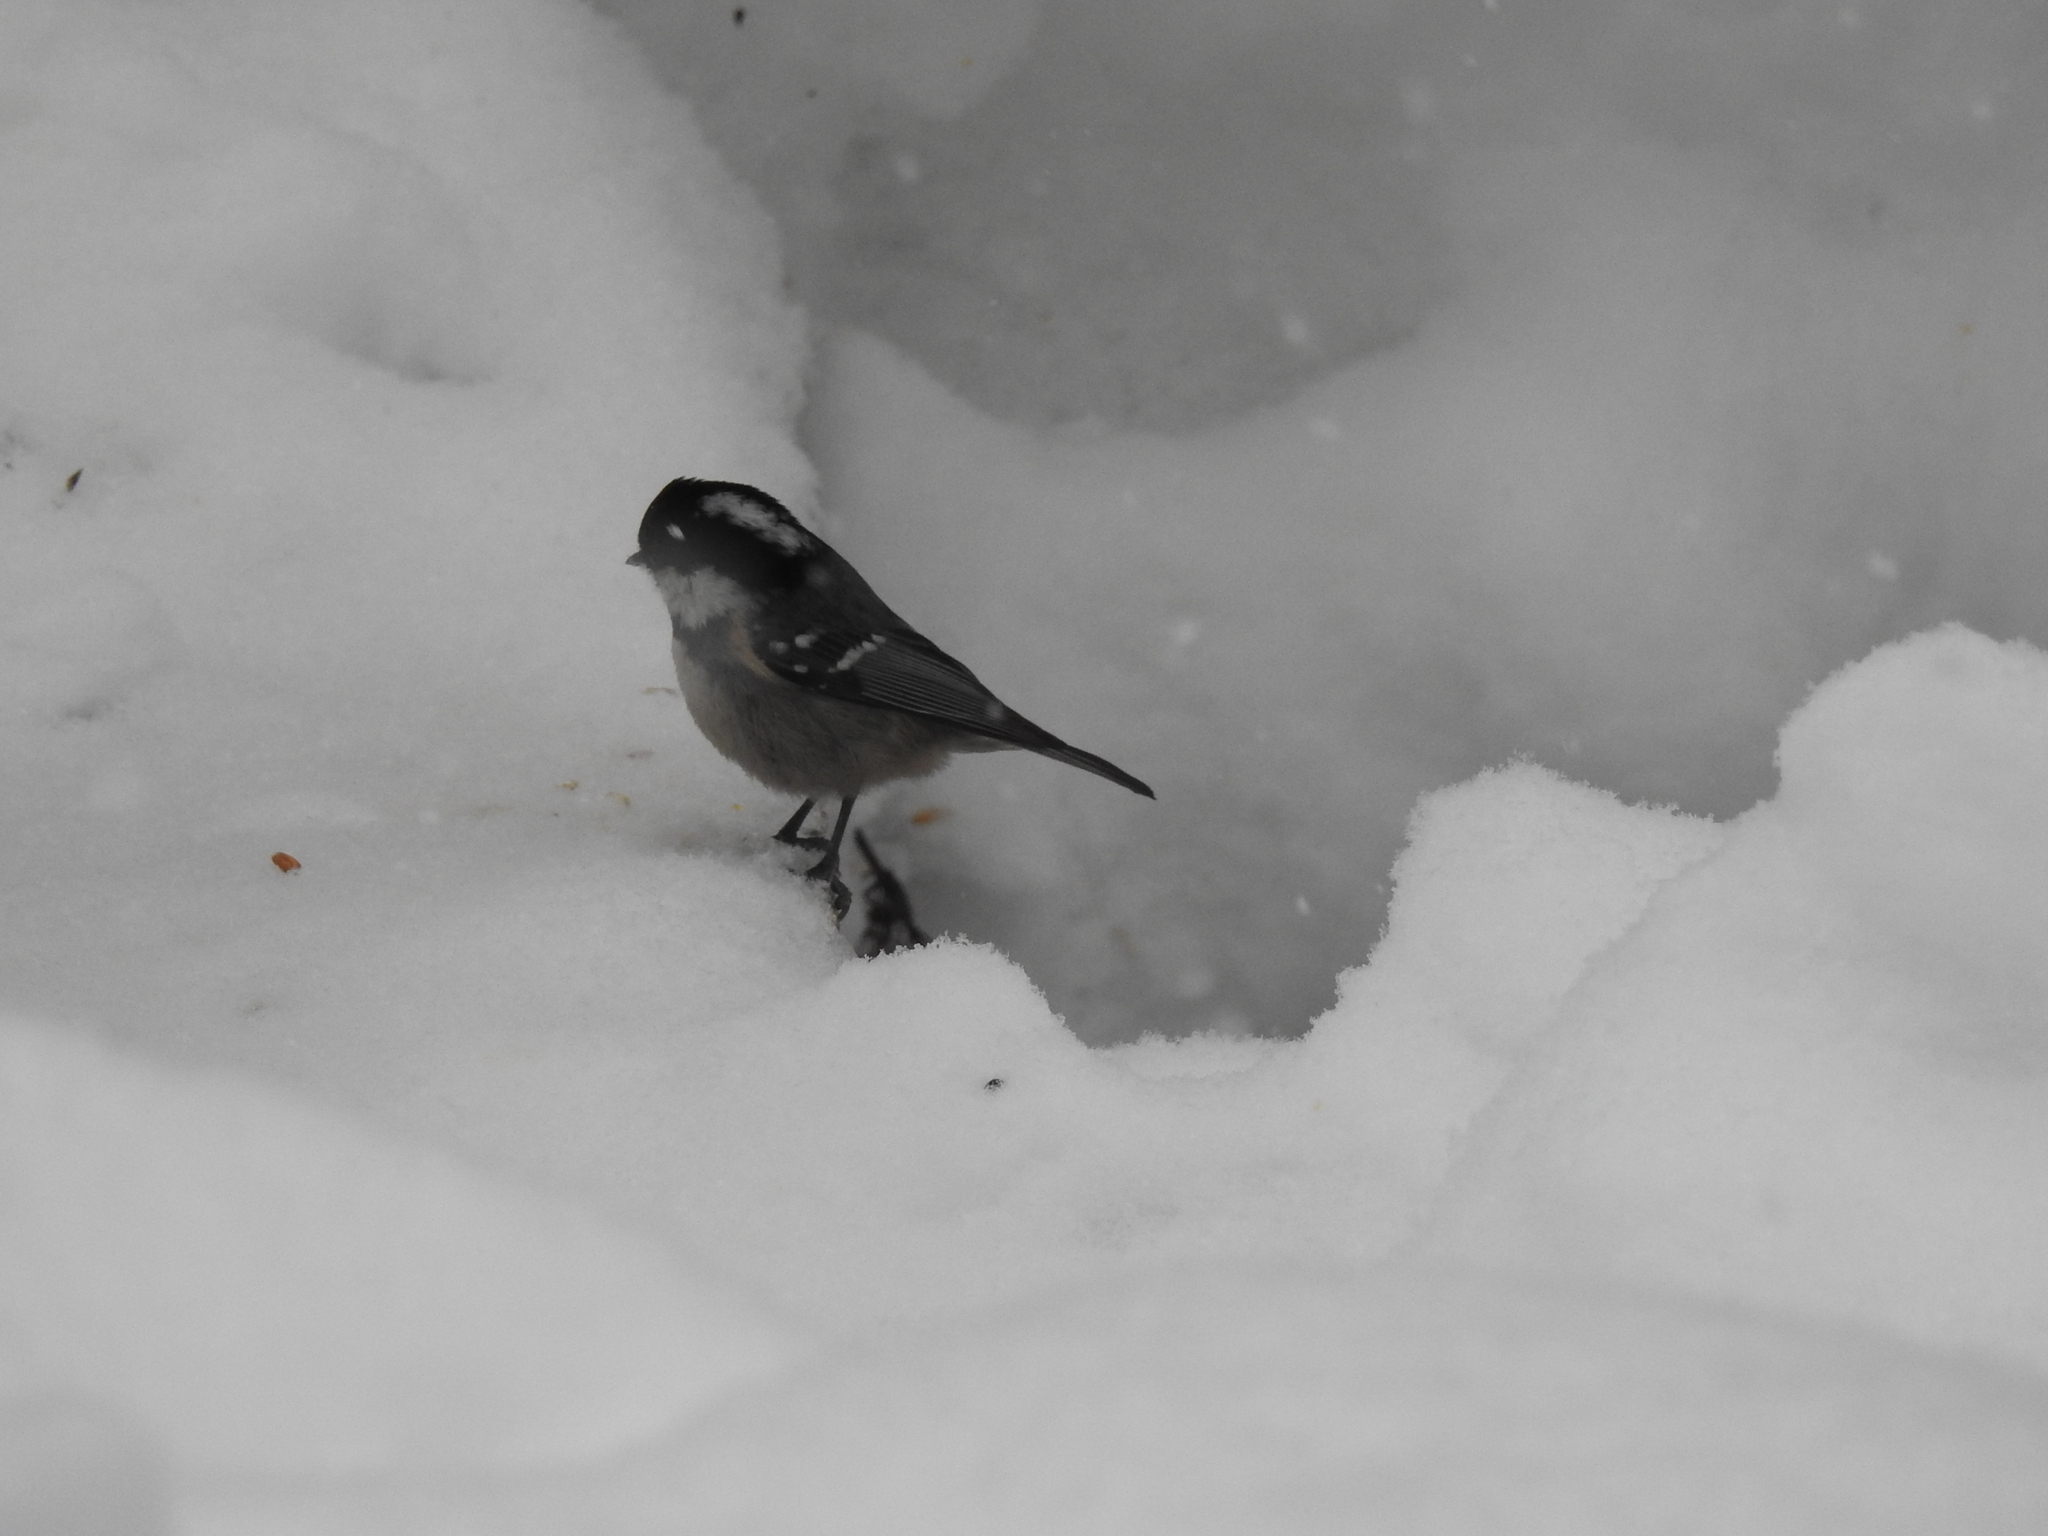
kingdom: Animalia
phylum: Chordata
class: Aves
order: Passeriformes
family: Paridae
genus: Periparus
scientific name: Periparus ater
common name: Coal tit
